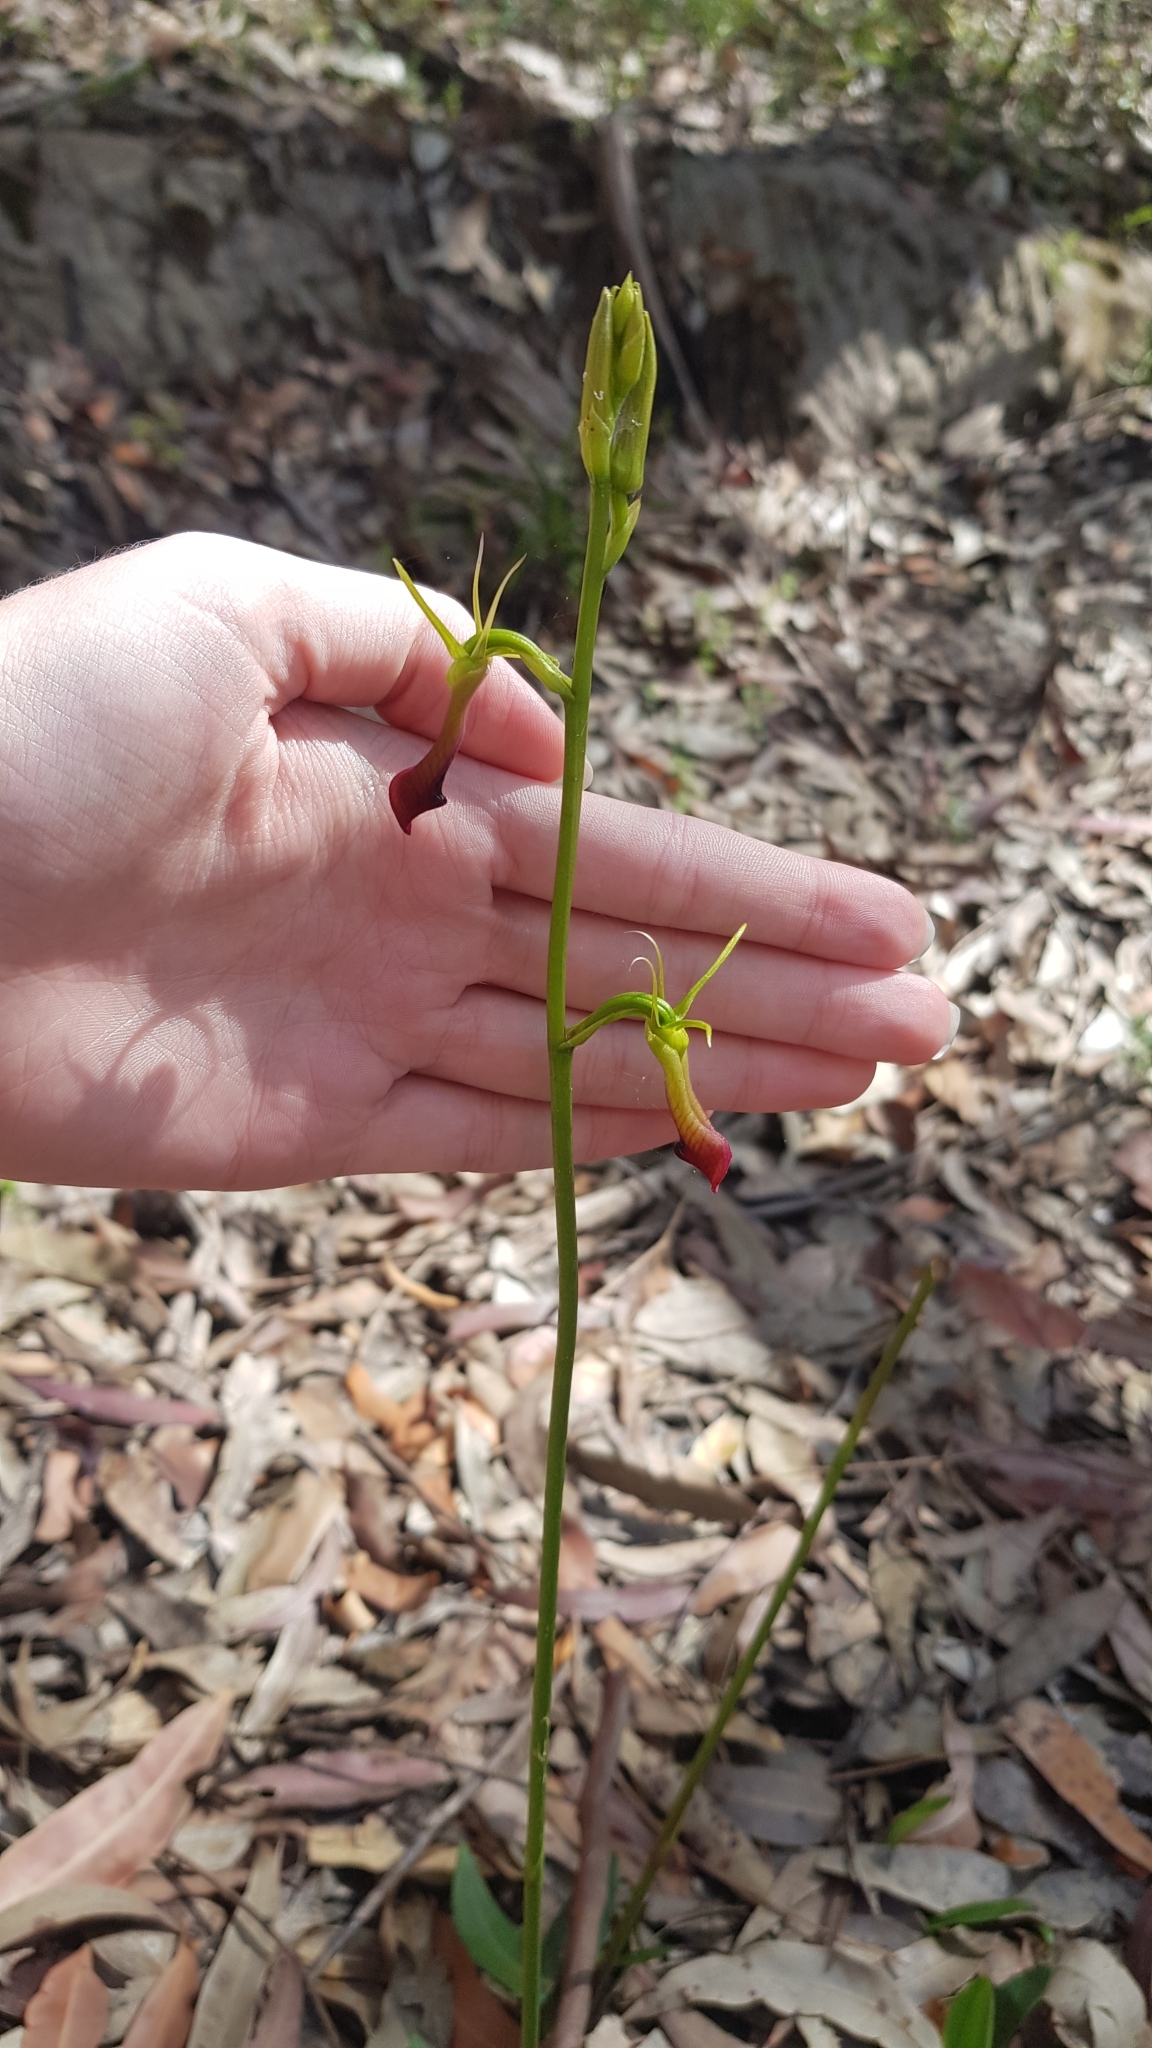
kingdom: Plantae
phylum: Tracheophyta
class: Liliopsida
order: Asparagales
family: Orchidaceae
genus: Cryptostylis
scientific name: Cryptostylis subulata
